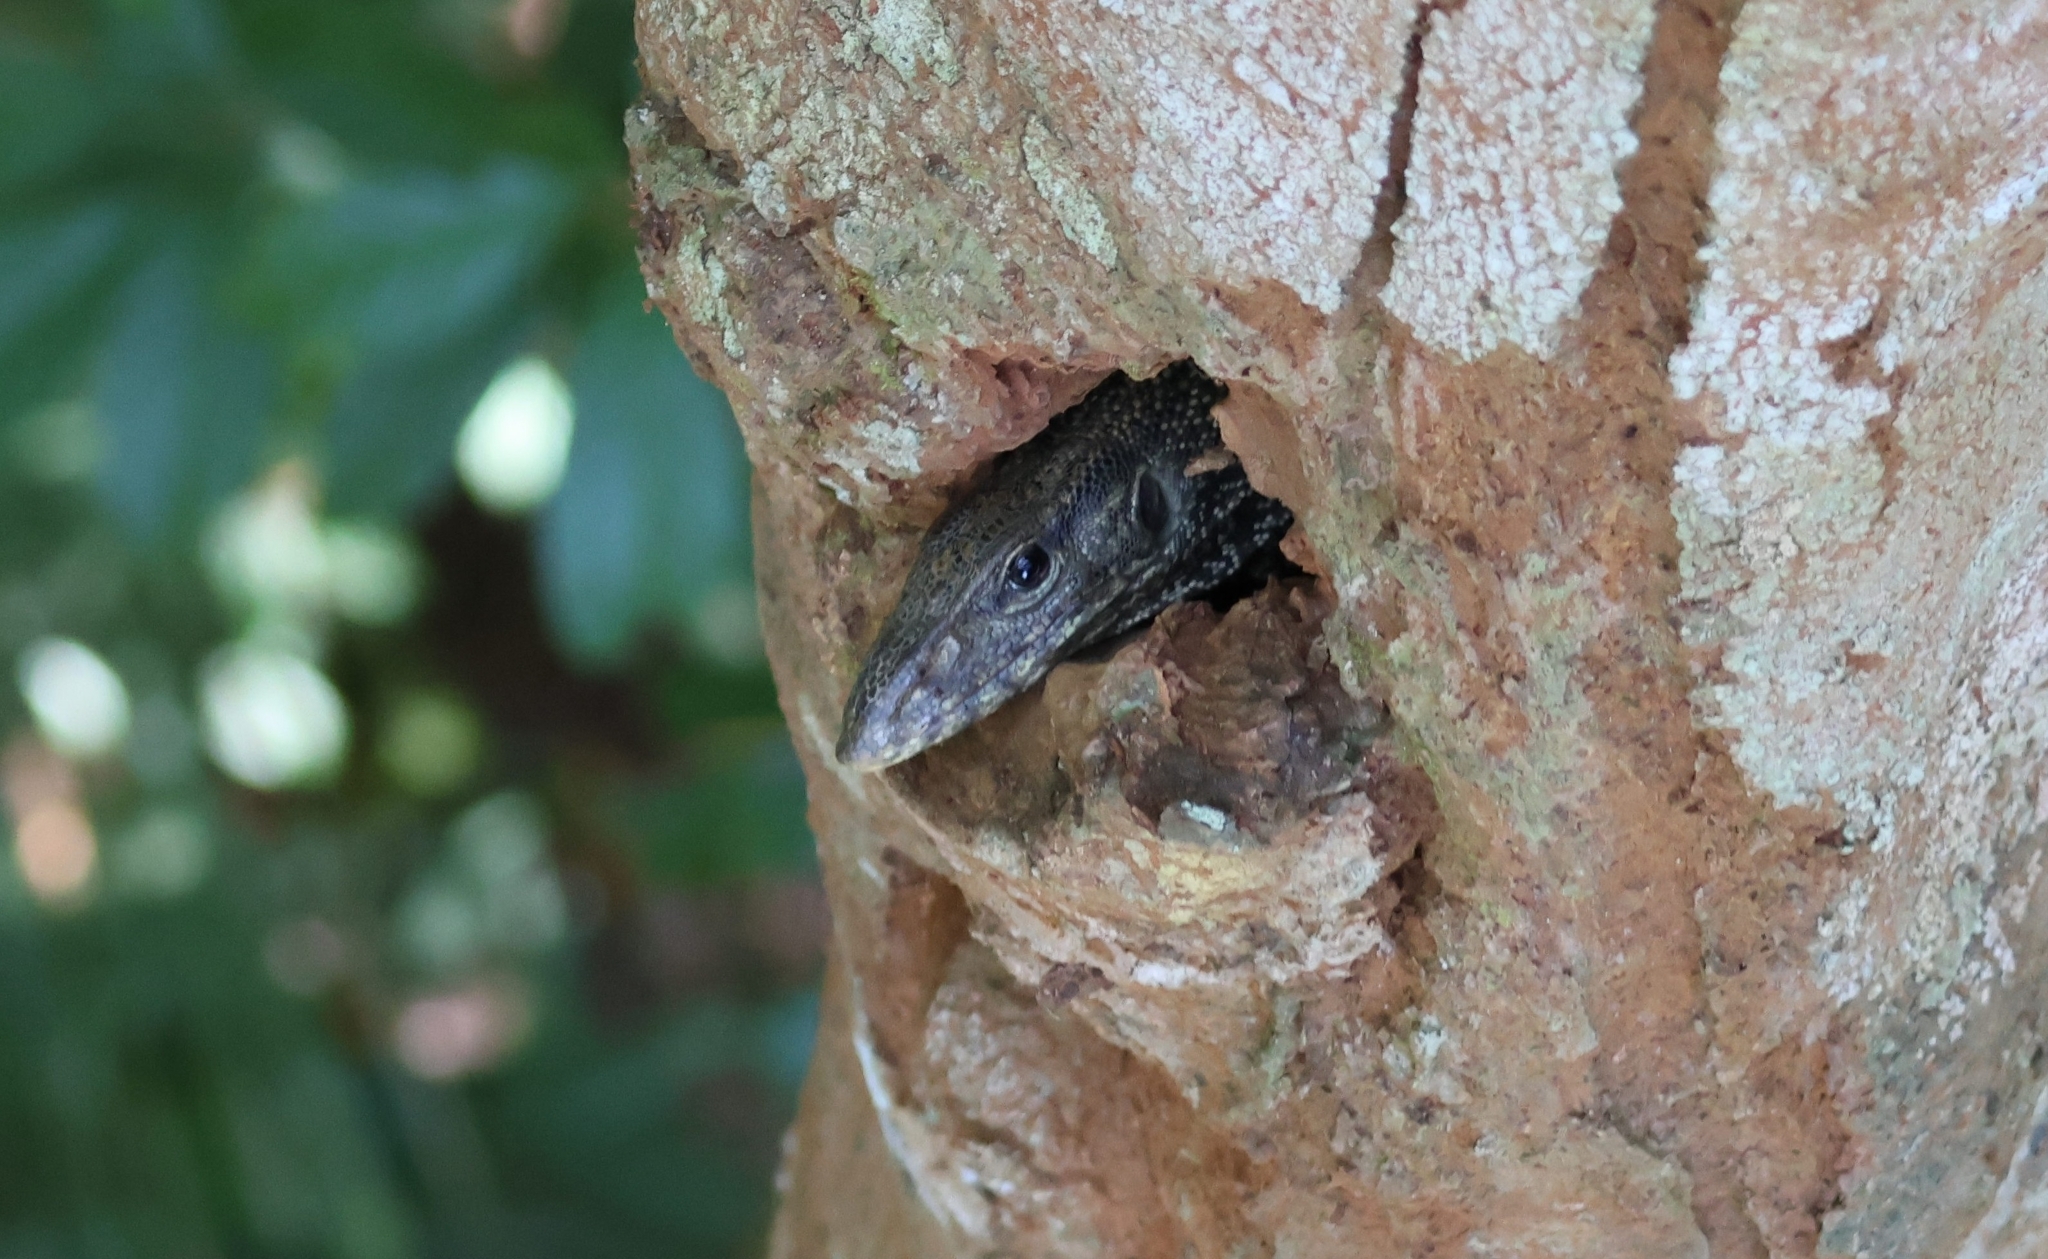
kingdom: Animalia
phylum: Chordata
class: Squamata
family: Varanidae
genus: Varanus
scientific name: Varanus nebulosus
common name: Clouded monitor
